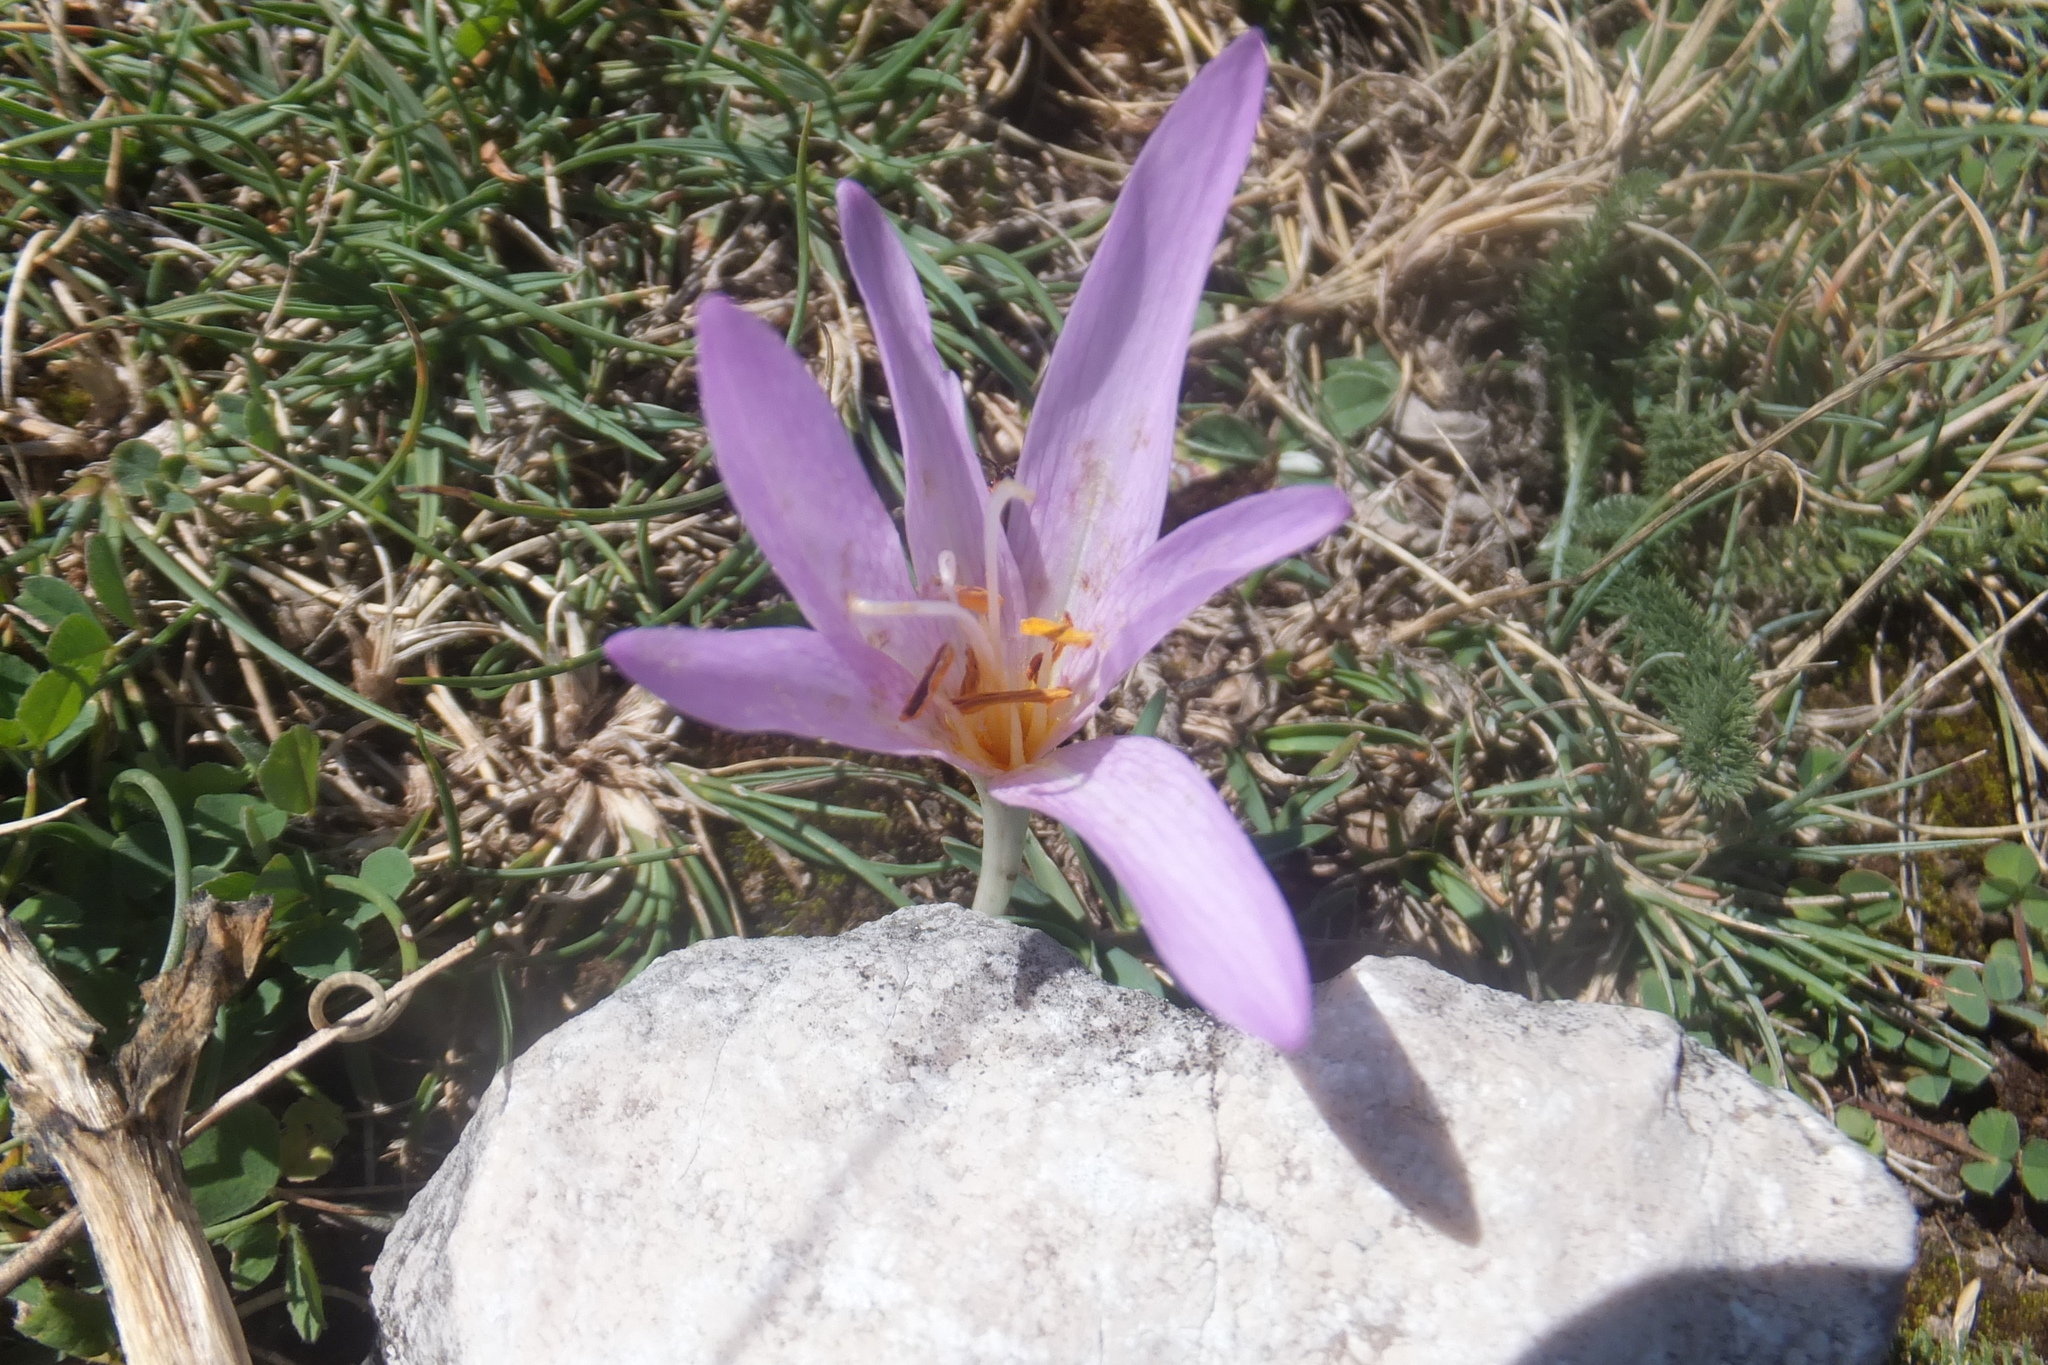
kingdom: Plantae
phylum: Tracheophyta
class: Liliopsida
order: Liliales
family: Colchicaceae
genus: Colchicum
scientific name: Colchicum lusitanum
